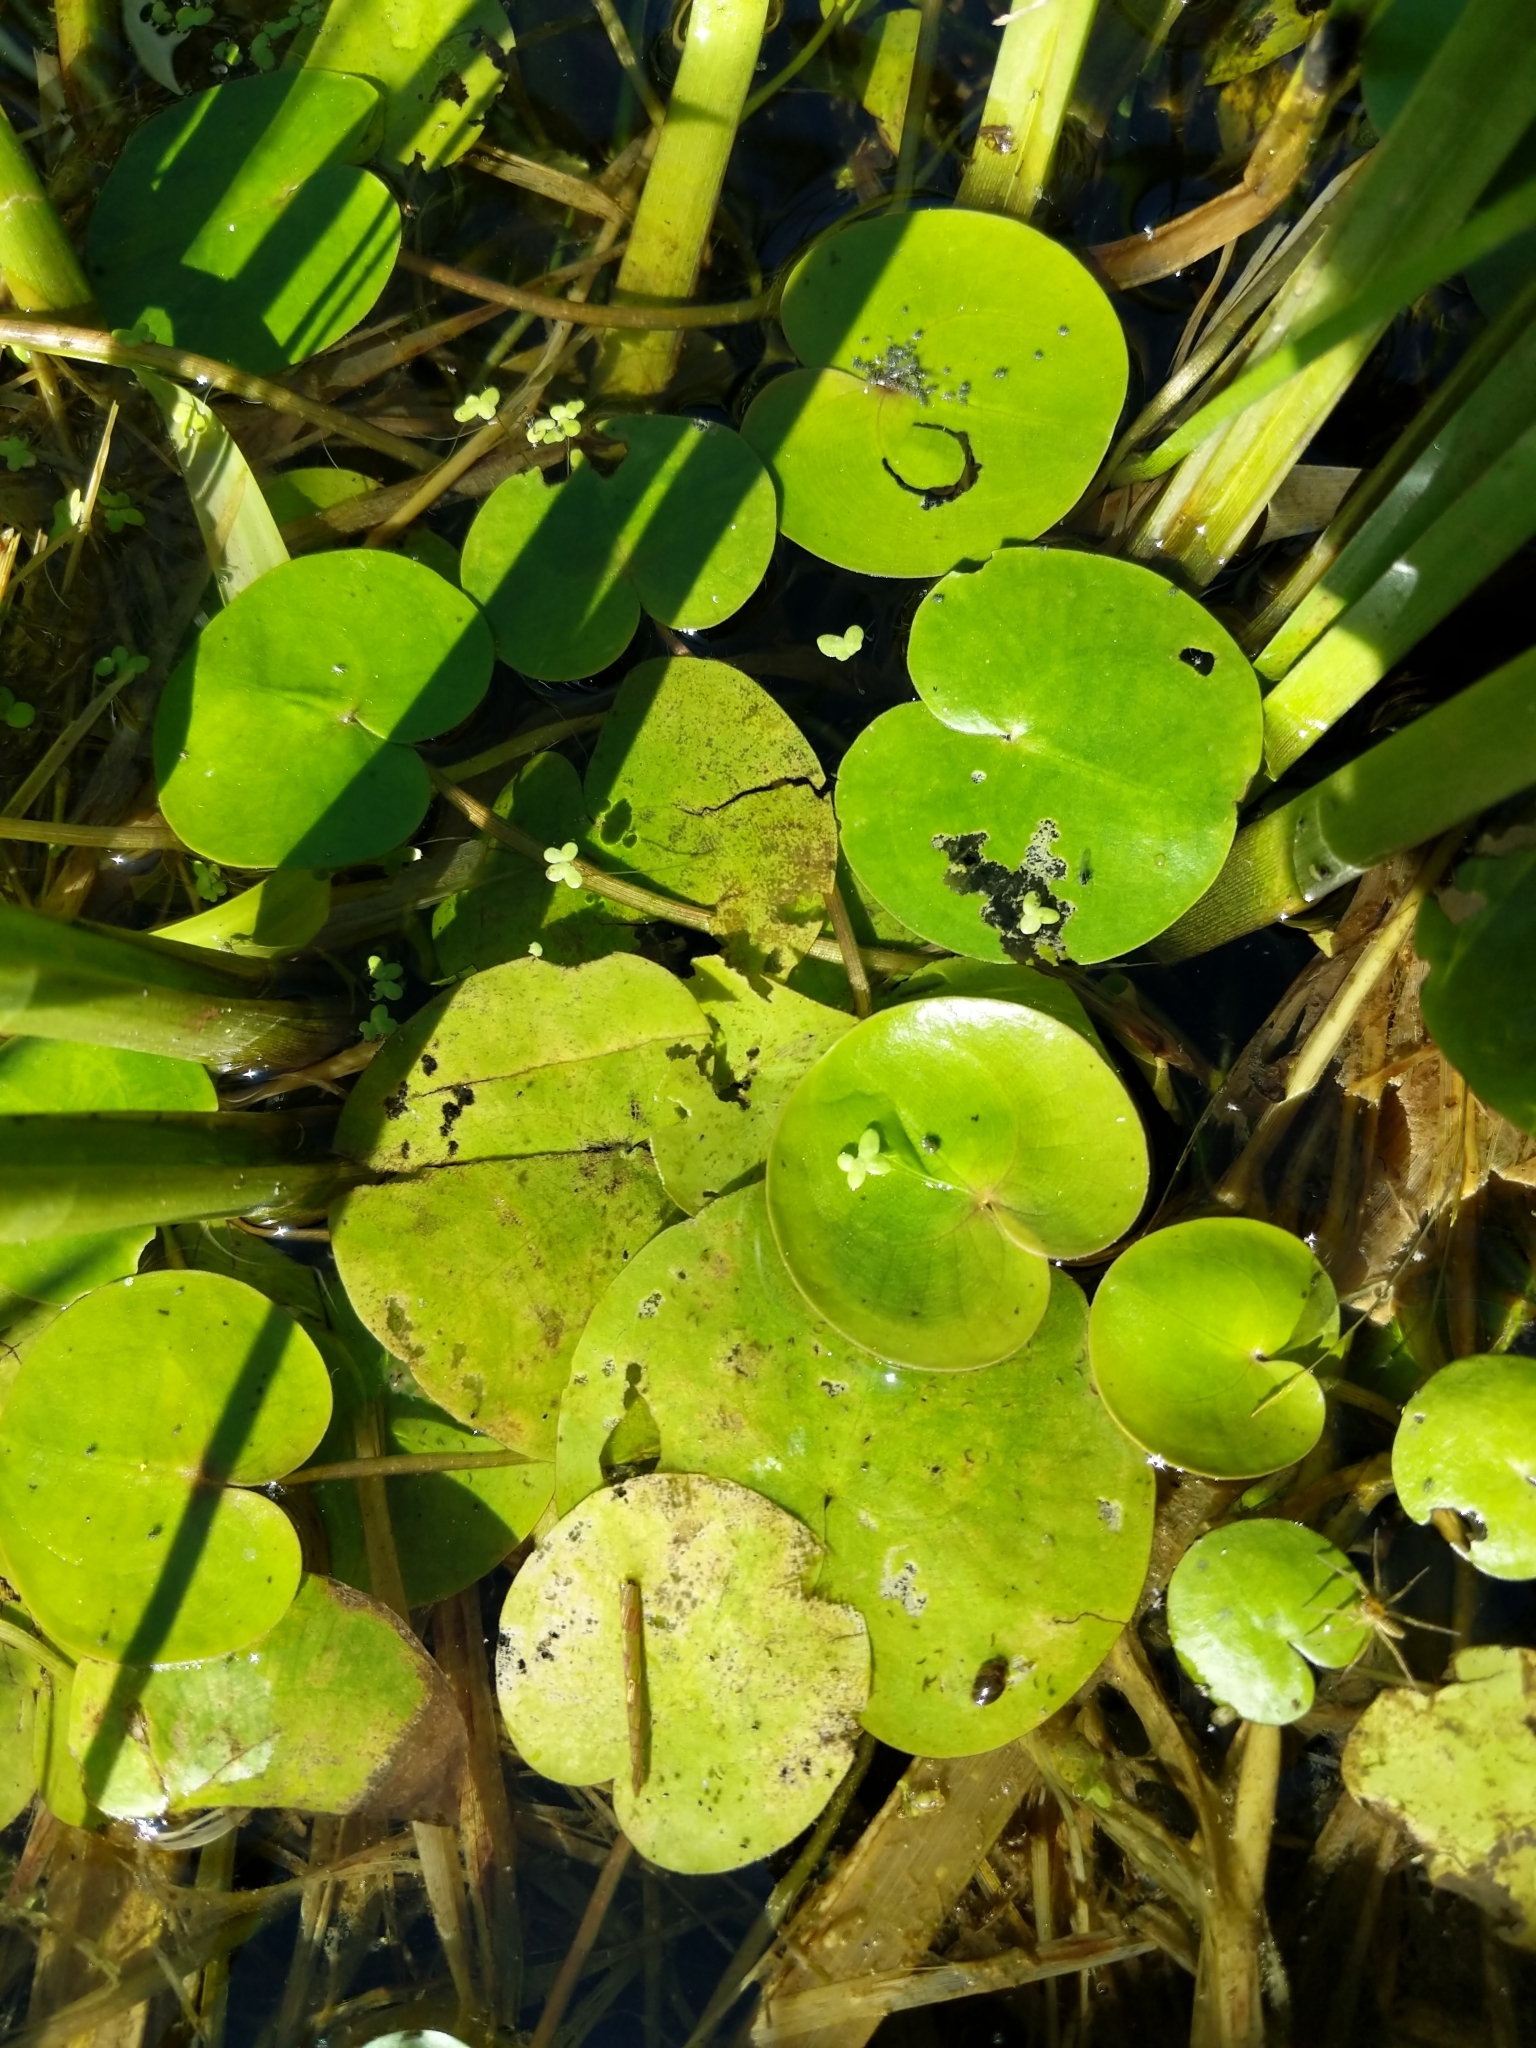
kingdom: Plantae
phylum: Tracheophyta
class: Liliopsida
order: Alismatales
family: Hydrocharitaceae
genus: Hydrocharis
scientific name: Hydrocharis morsus-ranae
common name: Frogbit
